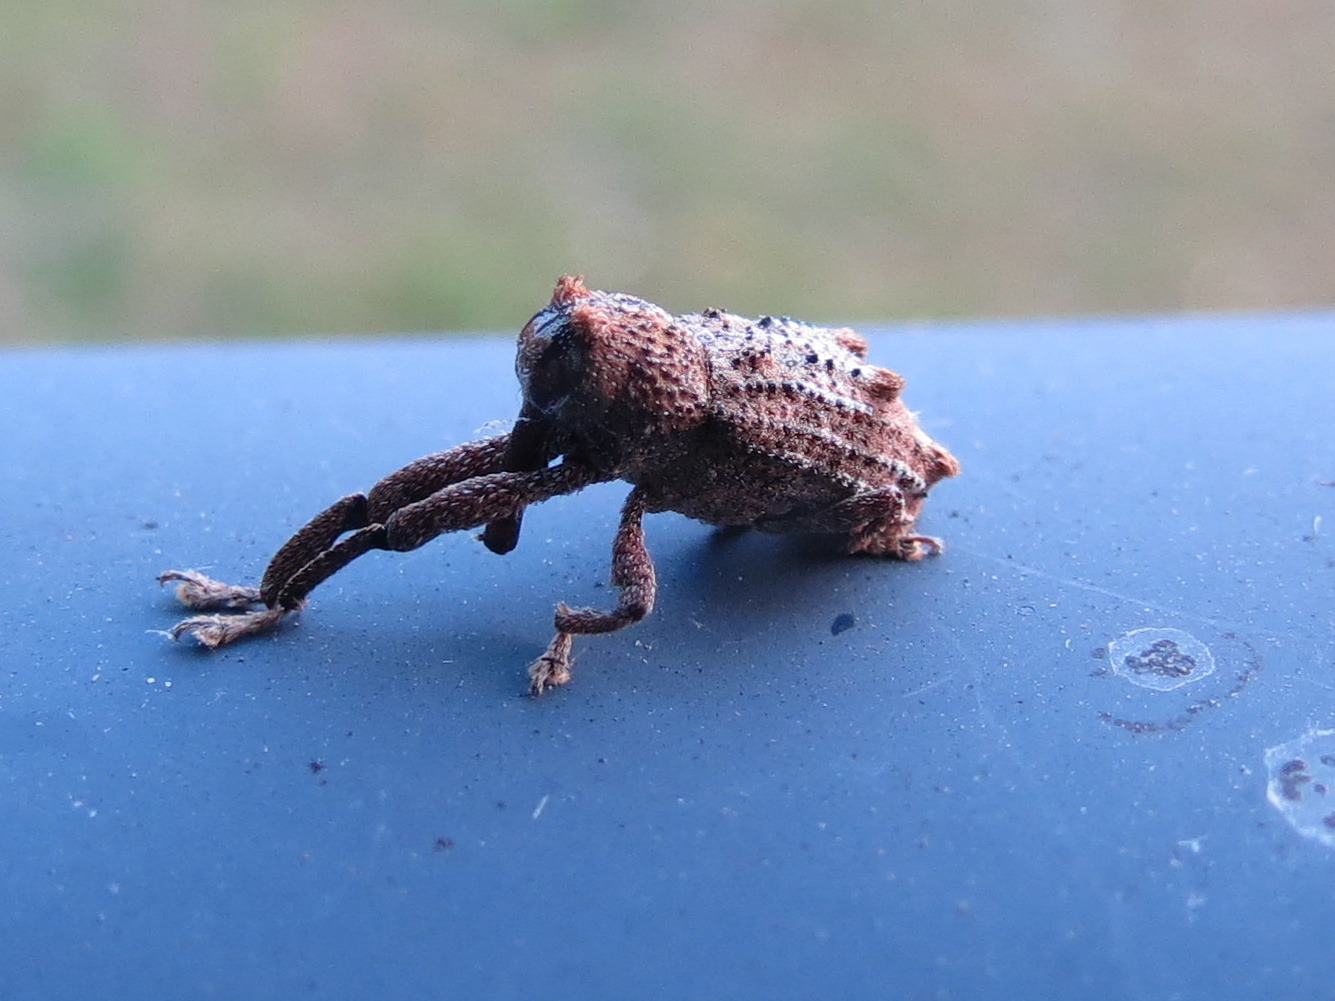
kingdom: Animalia
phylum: Arthropoda
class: Insecta
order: Coleoptera
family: Curculionidae
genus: Orthorhinus
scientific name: Orthorhinus cylindrirostris
